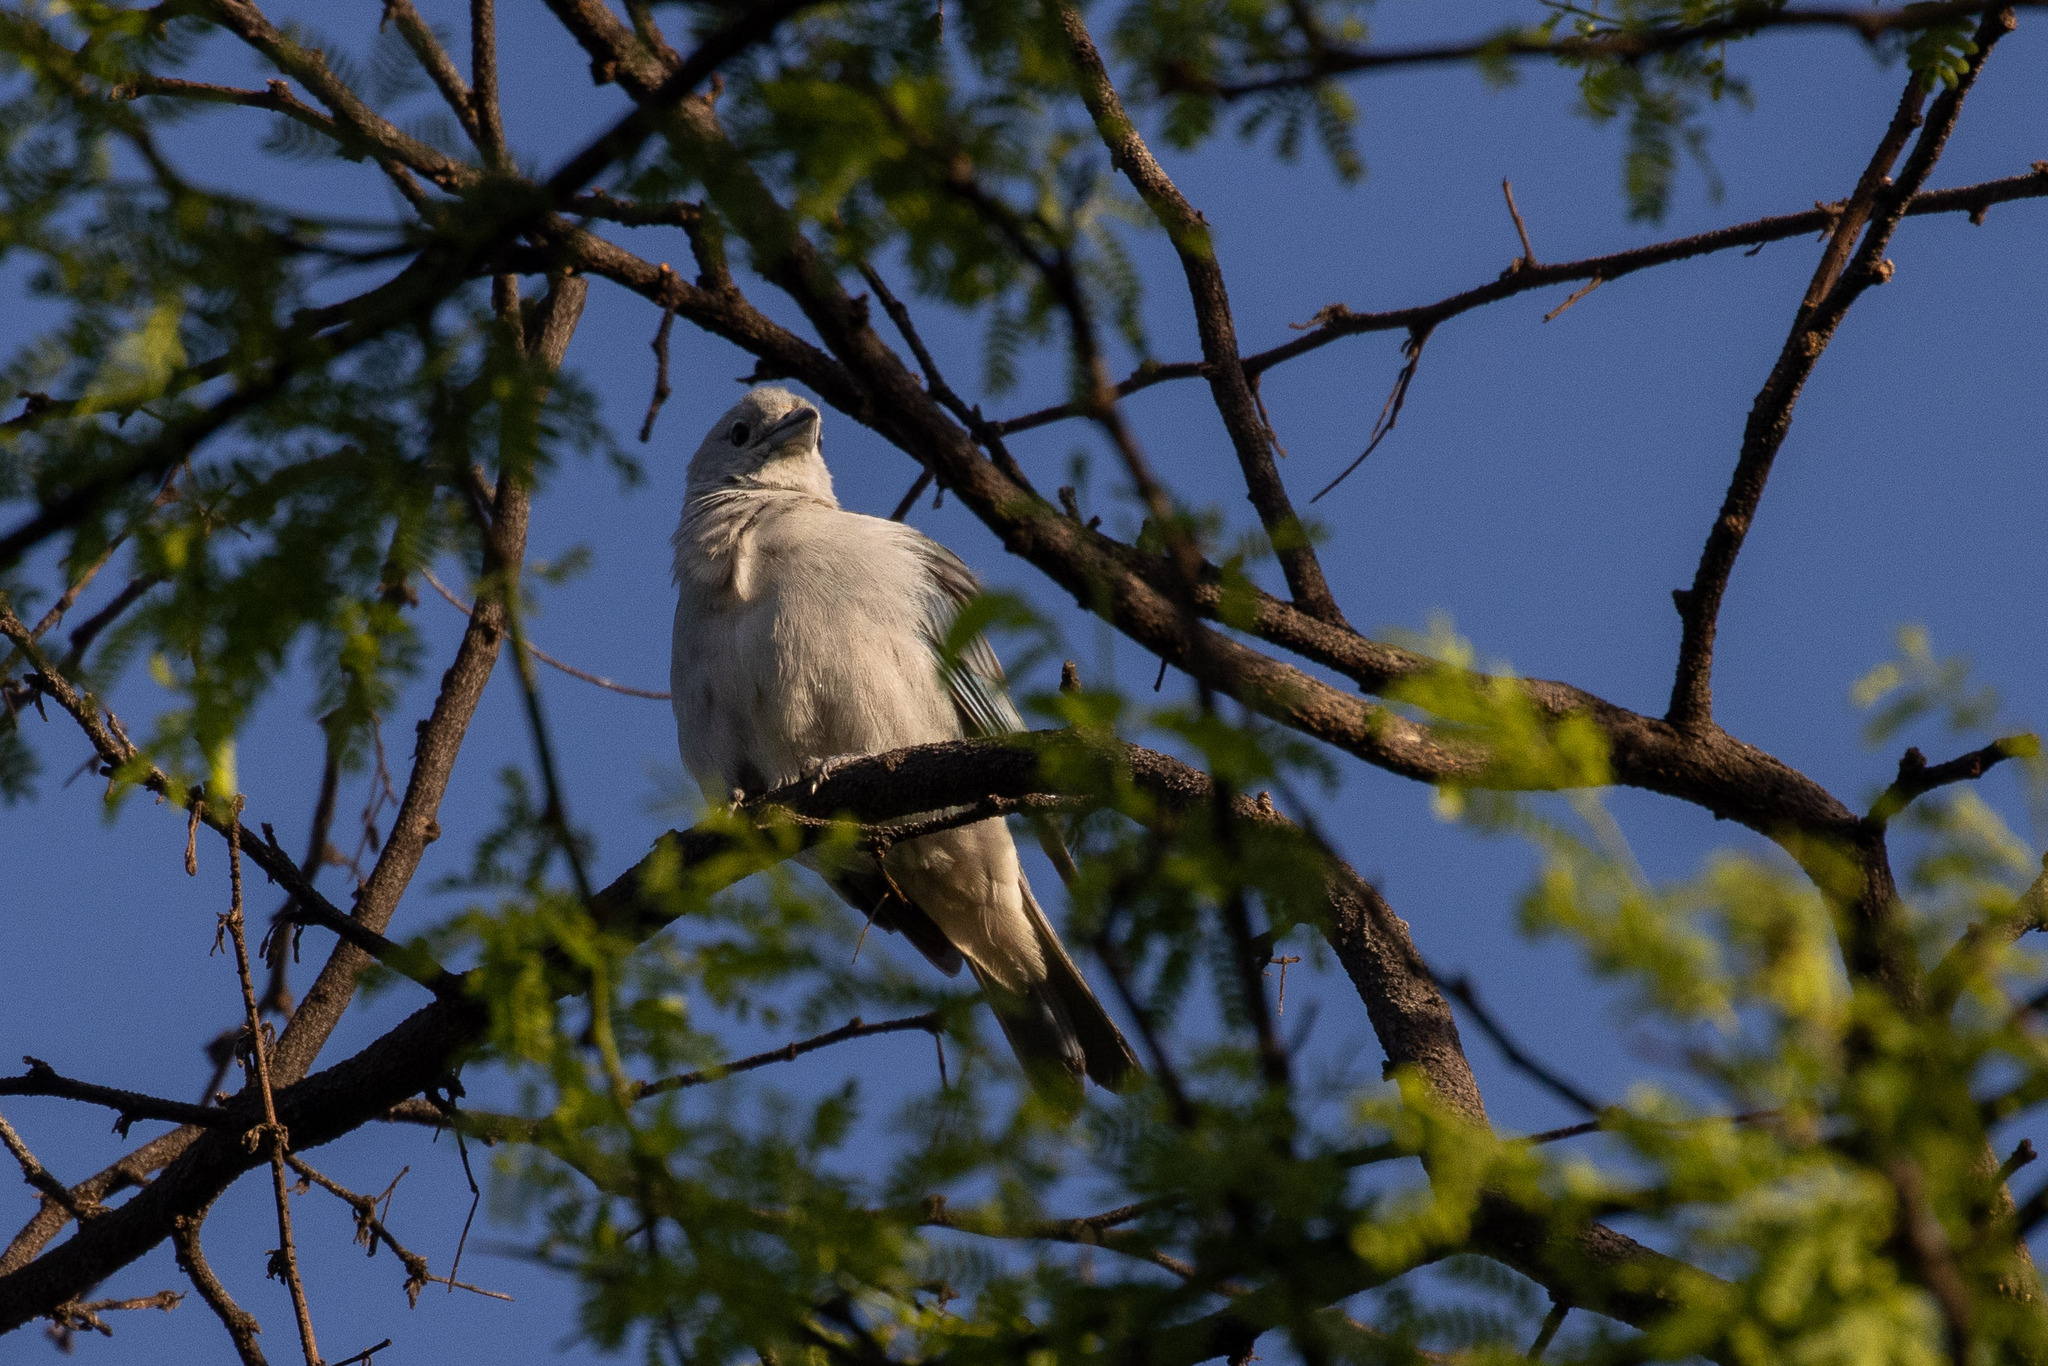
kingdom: Animalia
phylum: Chordata
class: Aves
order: Passeriformes
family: Thraupidae
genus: Thraupis
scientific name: Thraupis sayaca
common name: Sayaca tanager
